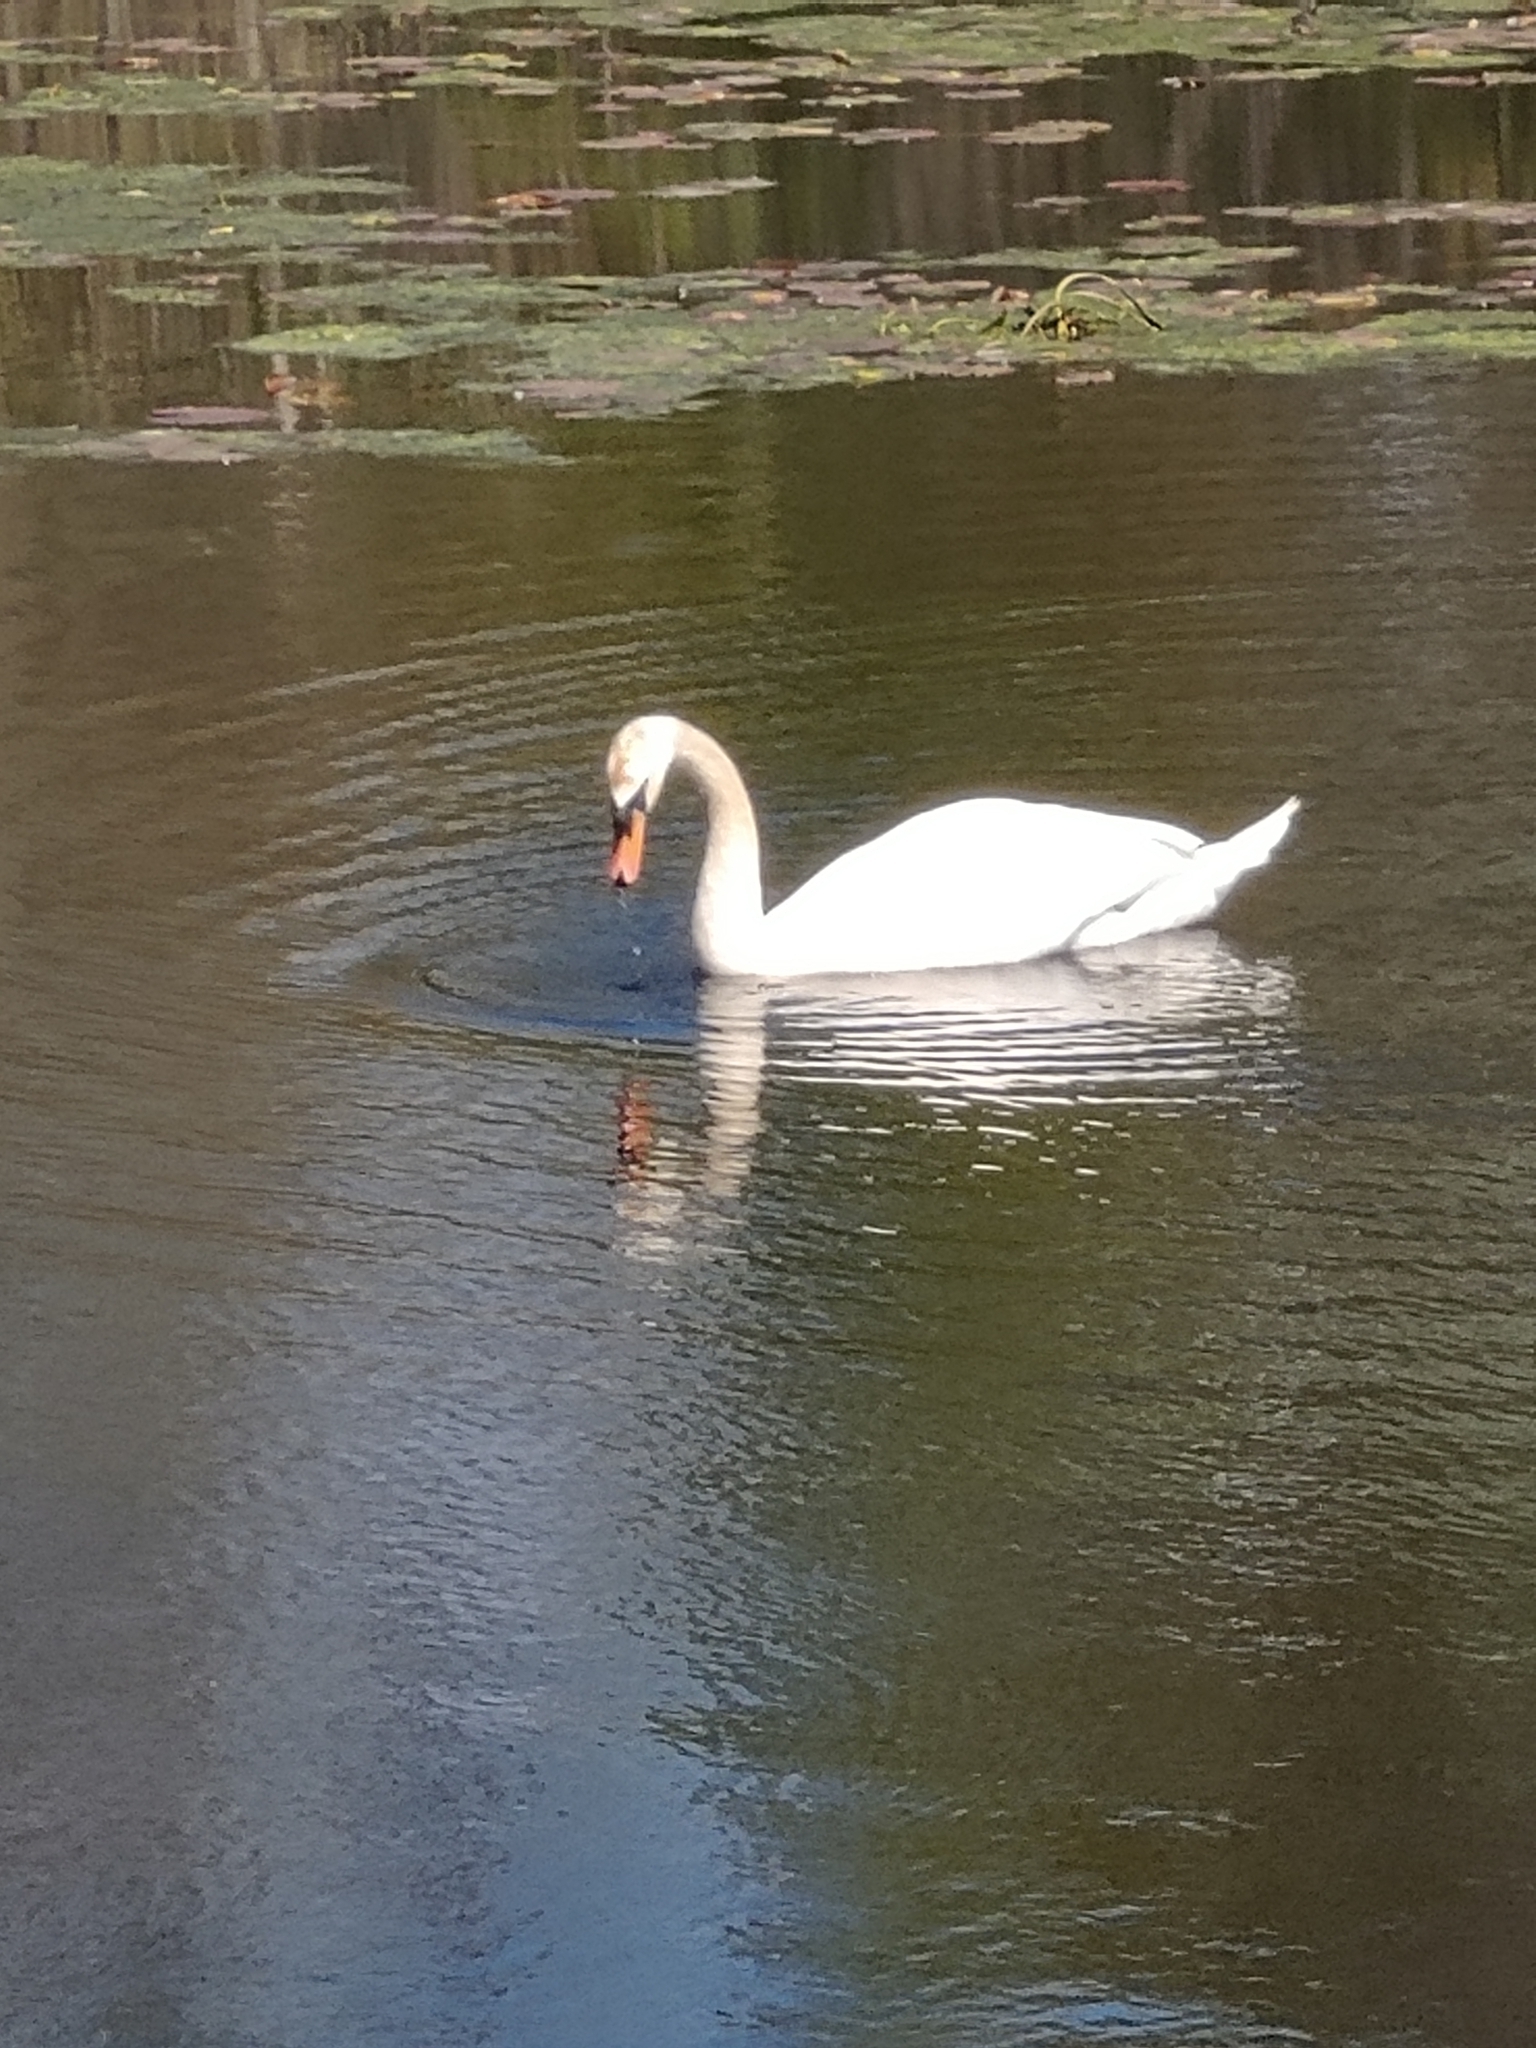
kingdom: Animalia
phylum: Chordata
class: Aves
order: Anseriformes
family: Anatidae
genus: Cygnus
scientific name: Cygnus olor
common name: Mute swan
